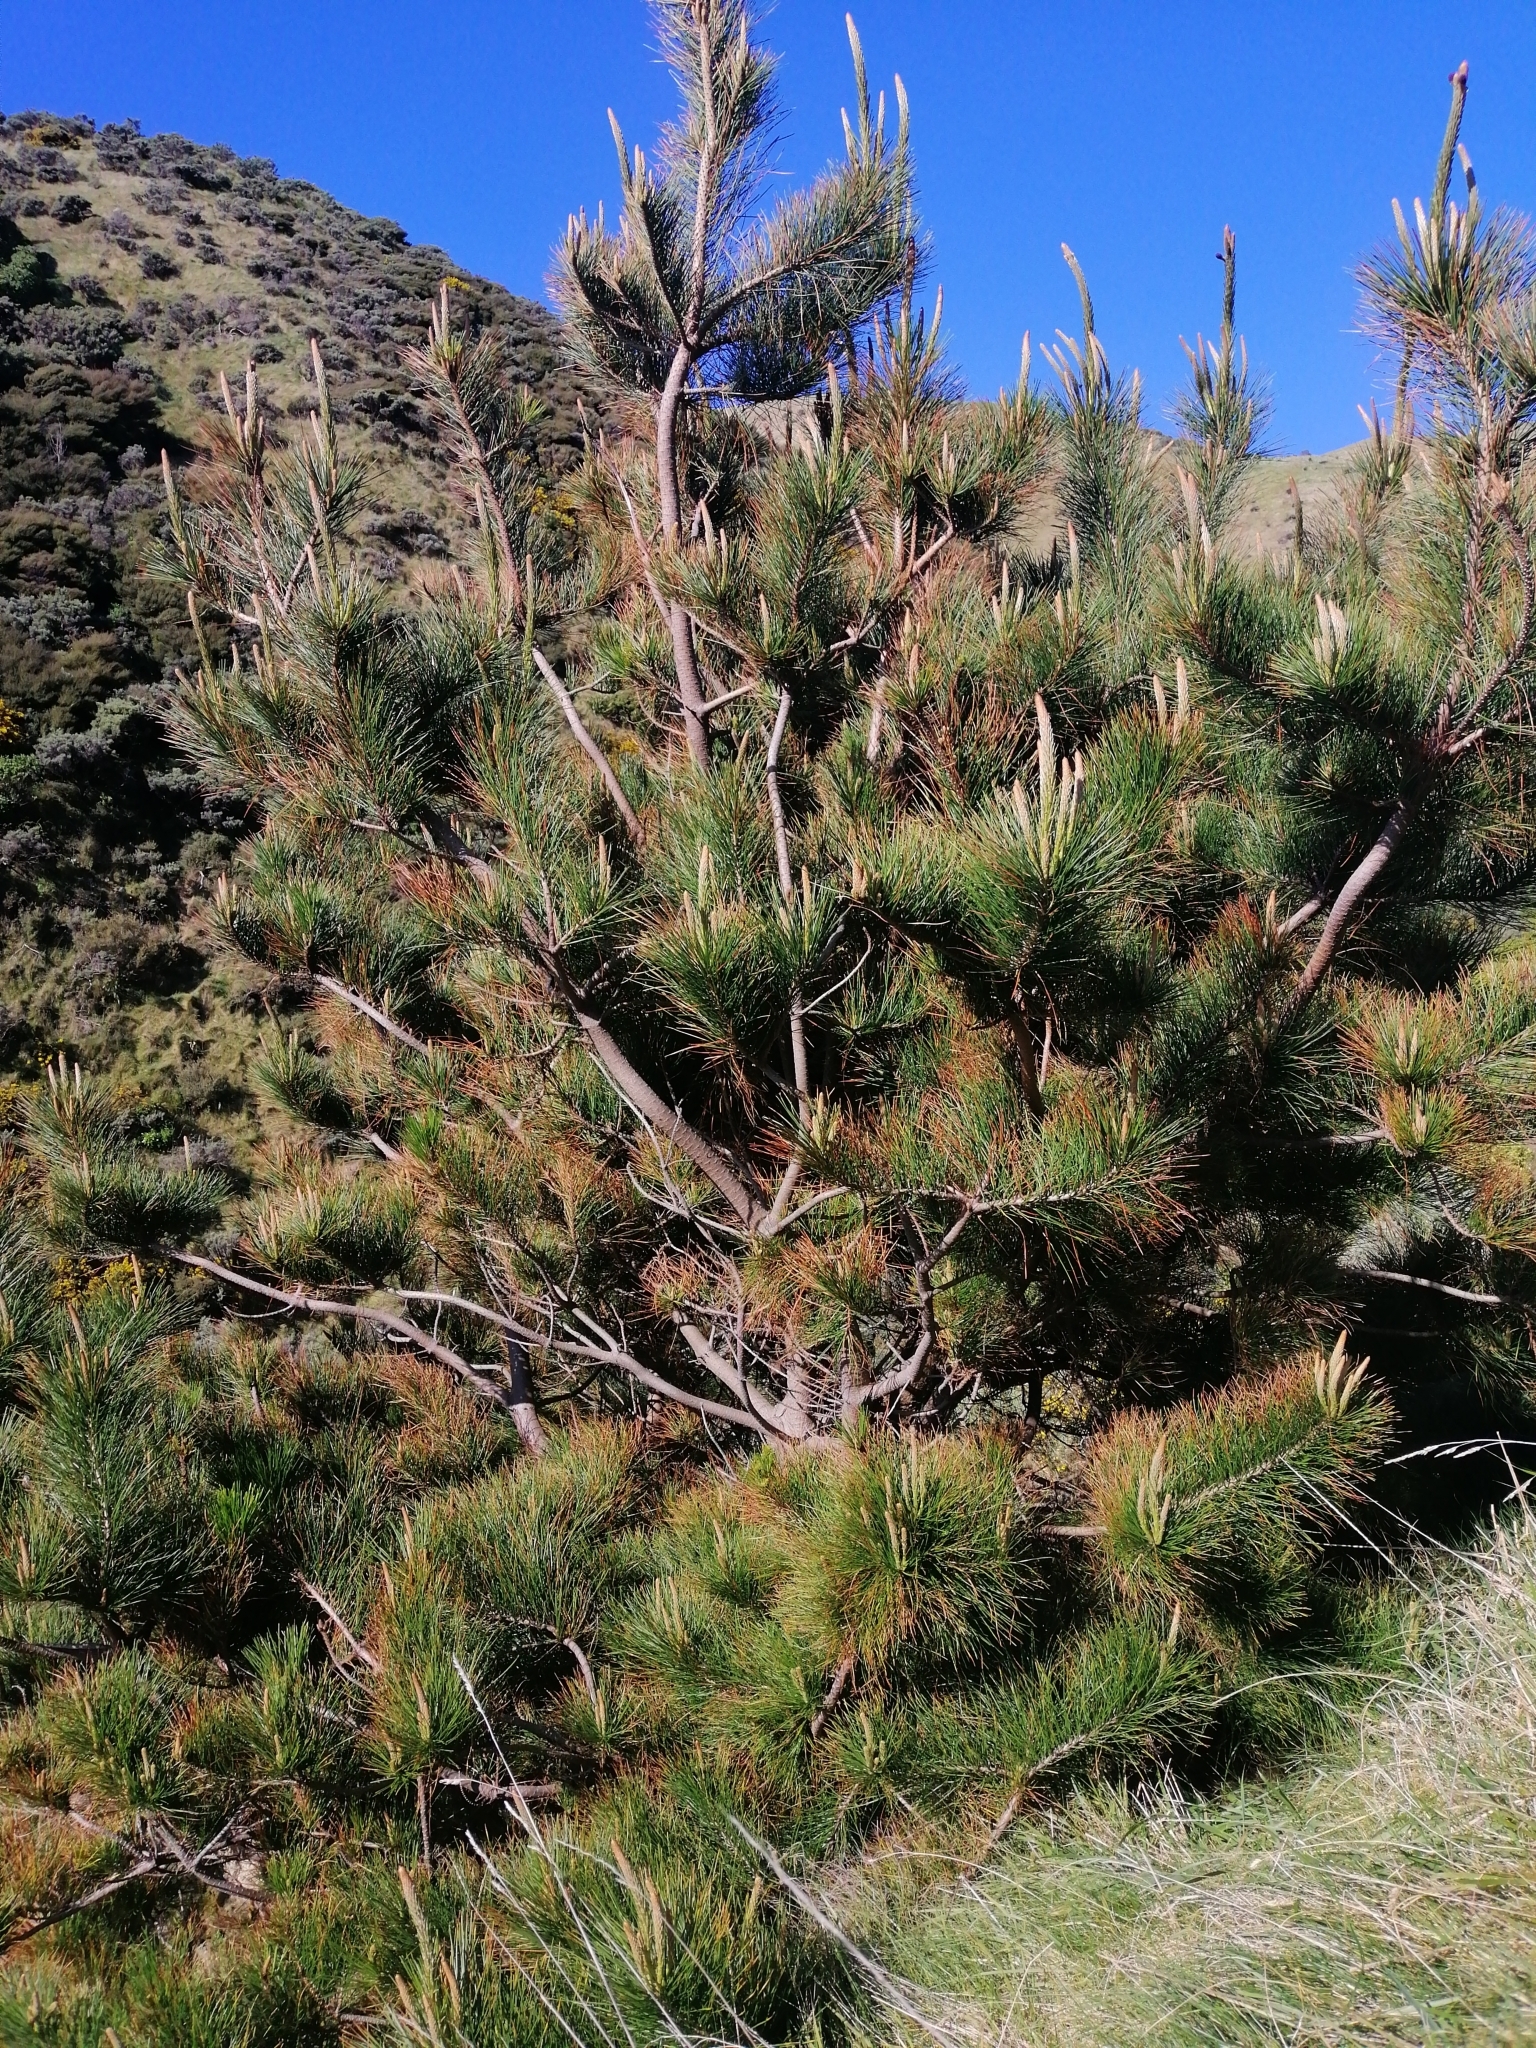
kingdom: Plantae
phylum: Tracheophyta
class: Pinopsida
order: Pinales
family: Pinaceae
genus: Pinus
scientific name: Pinus radiata
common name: Monterey pine
